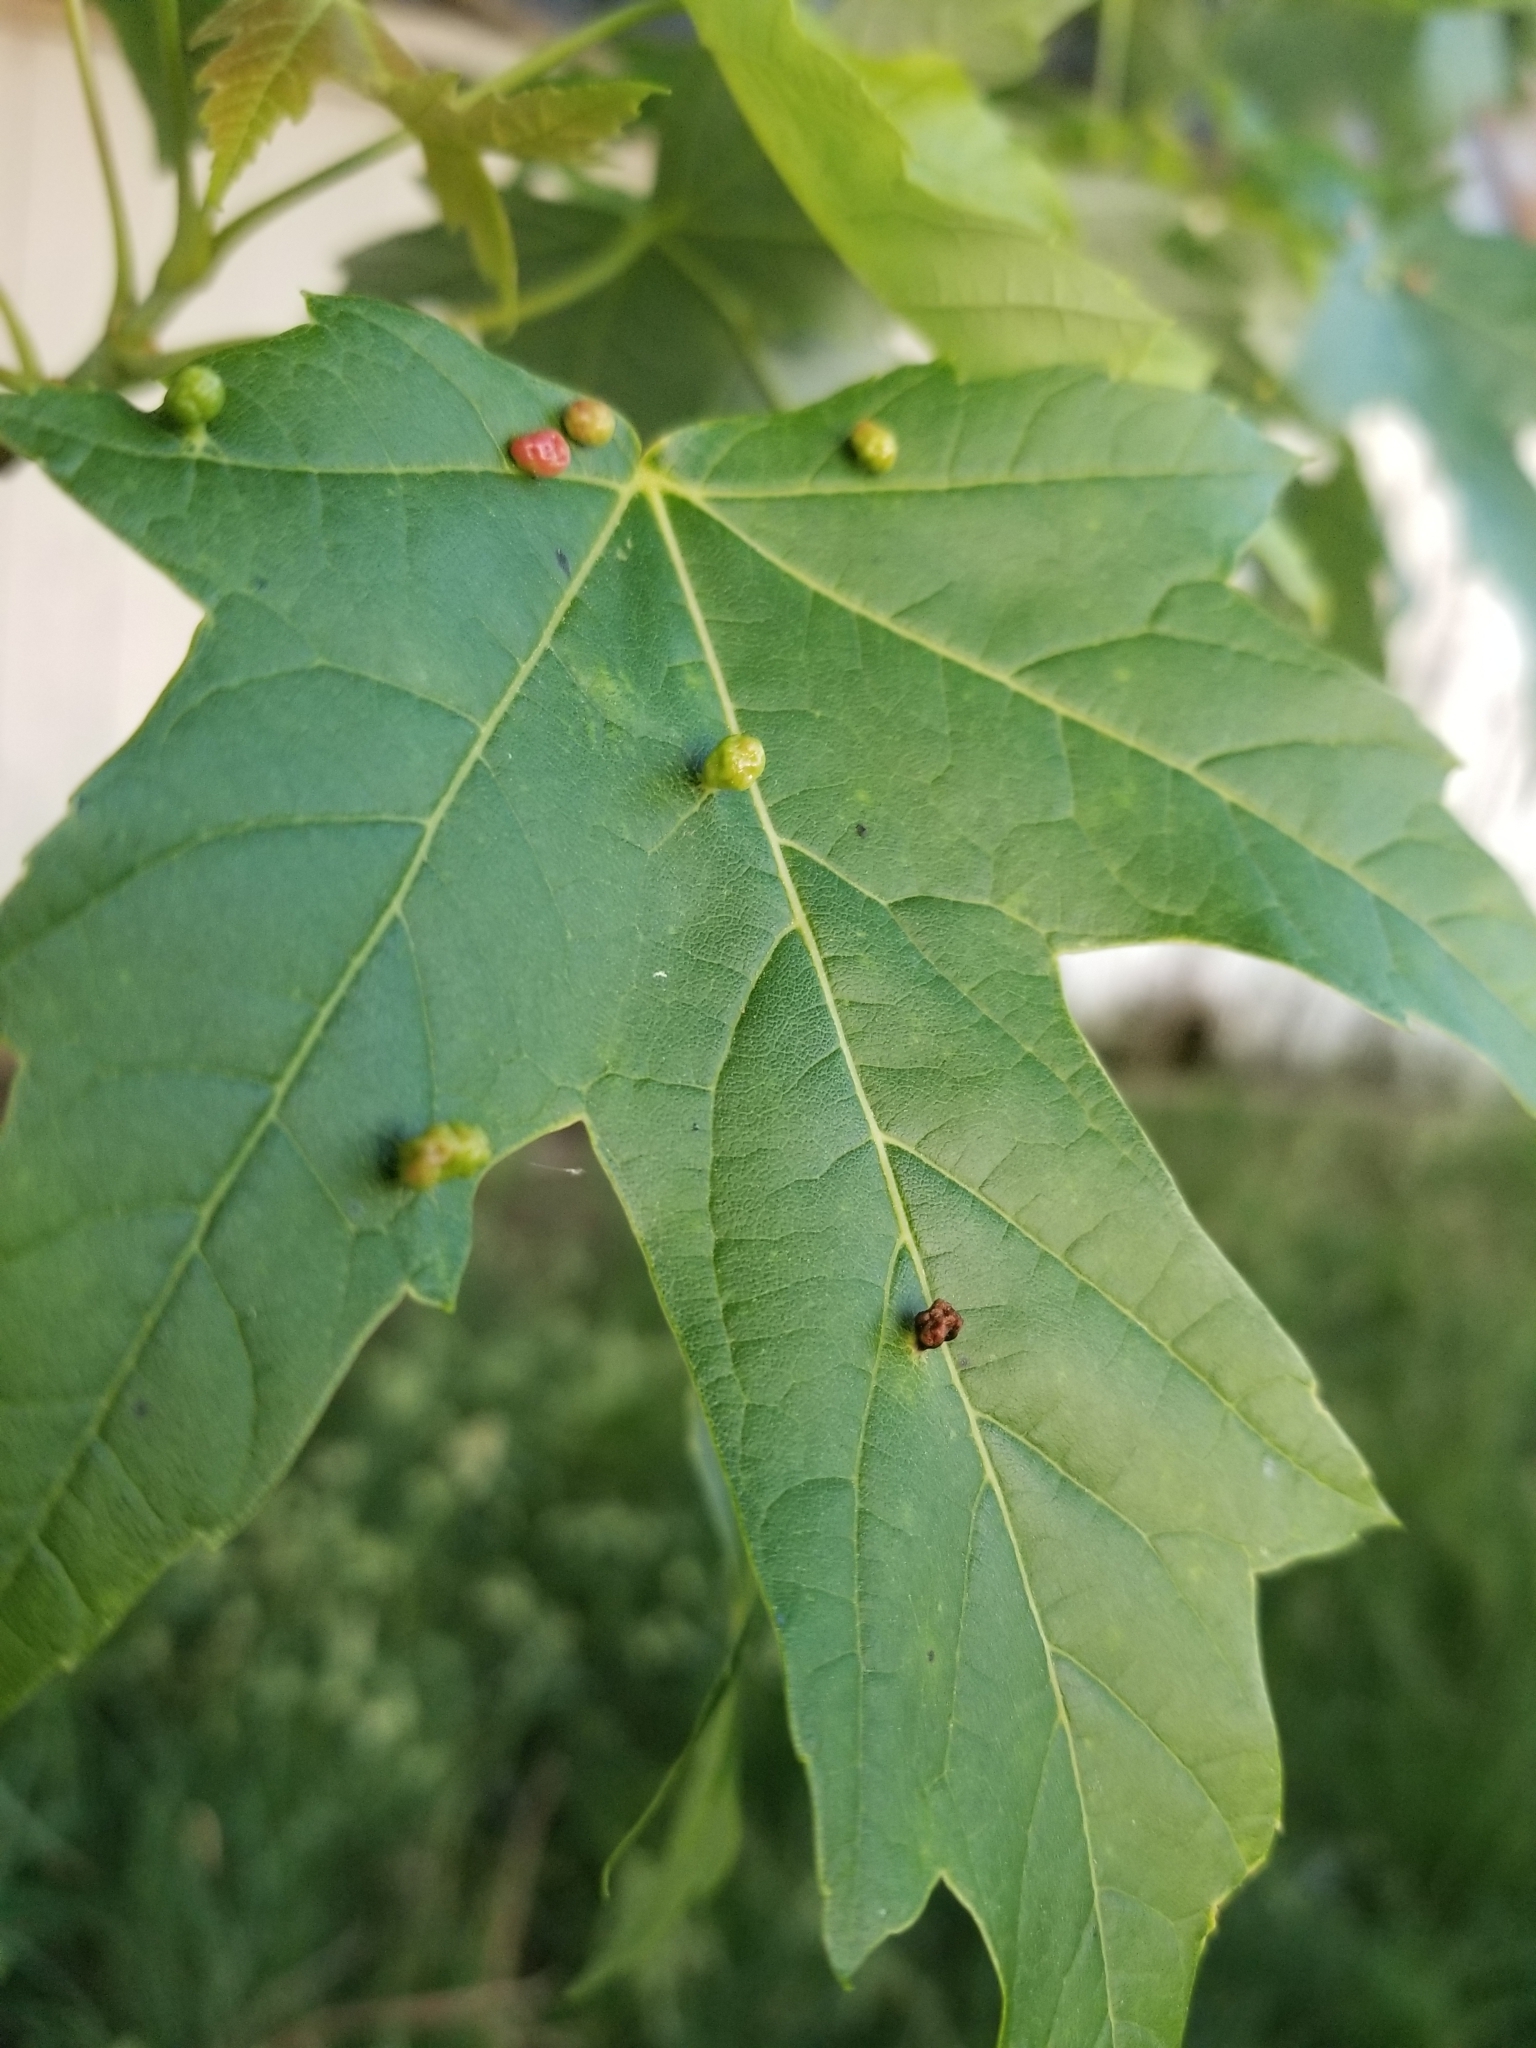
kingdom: Animalia
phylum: Arthropoda
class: Arachnida
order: Trombidiformes
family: Eriophyidae
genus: Vasates
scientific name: Vasates quadripedes
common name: Maple bladder gall mite
